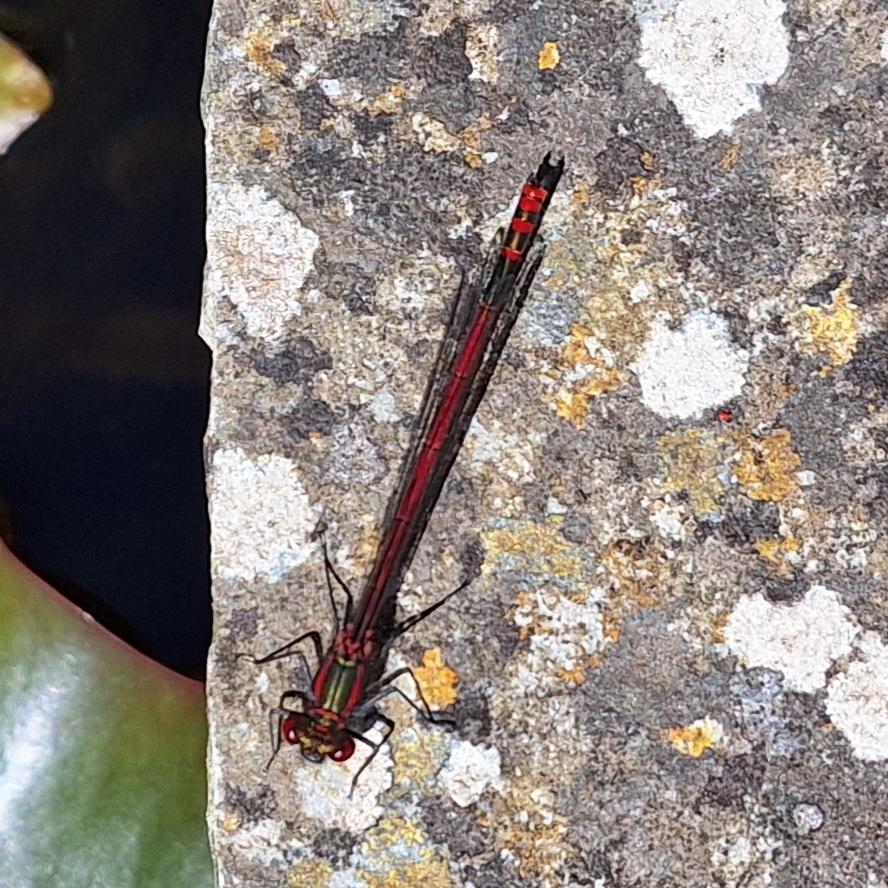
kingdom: Animalia
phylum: Arthropoda
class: Insecta
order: Odonata
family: Coenagrionidae
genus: Pyrrhosoma
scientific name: Pyrrhosoma nymphula
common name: Large red damsel
